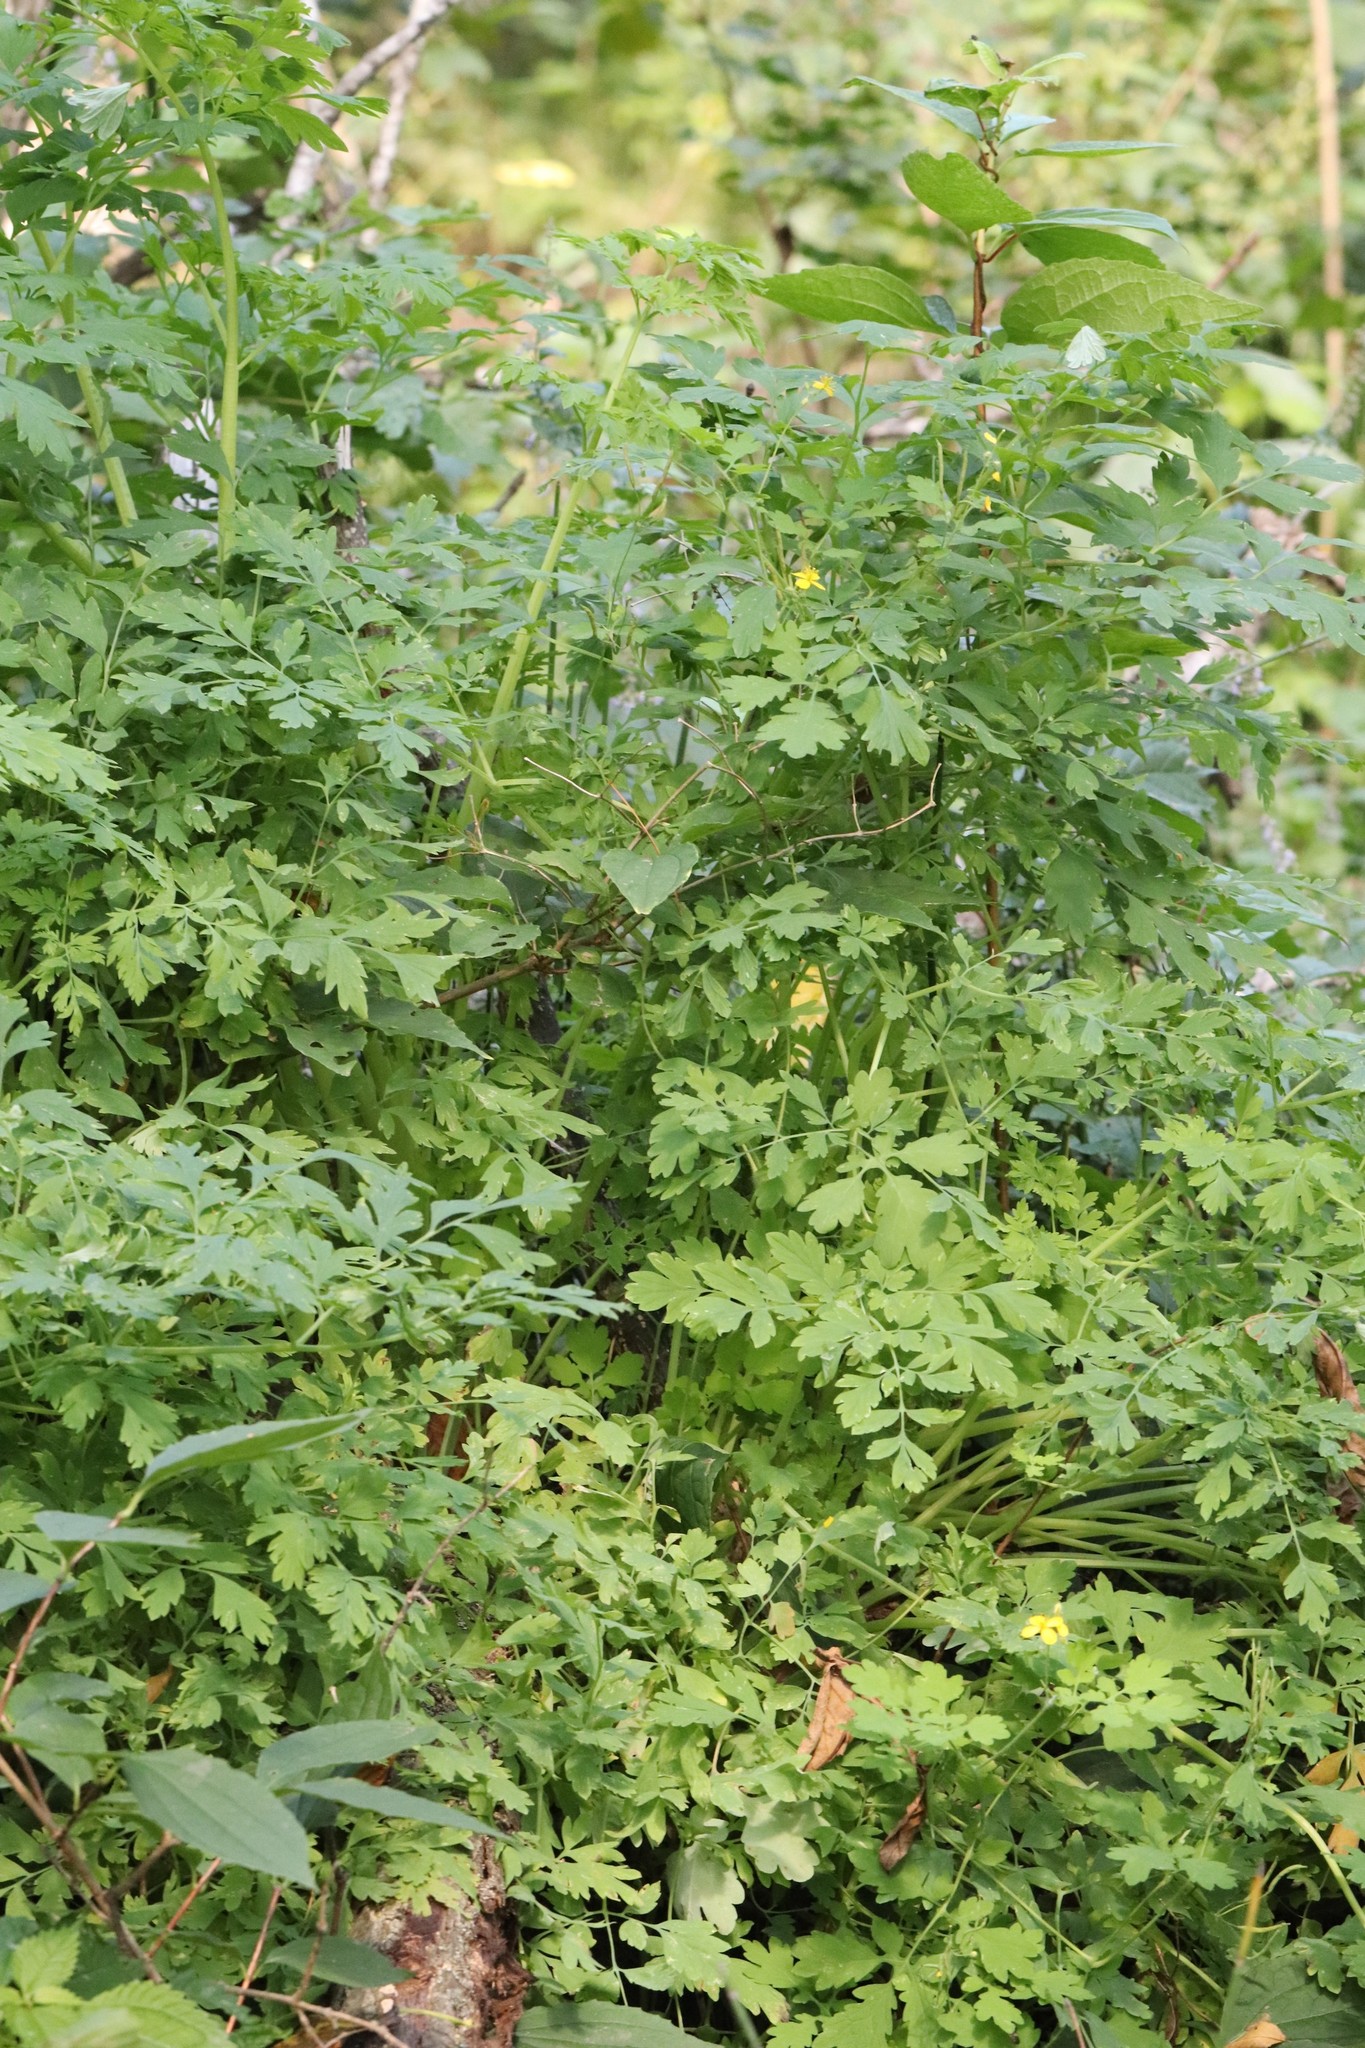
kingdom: Plantae
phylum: Tracheophyta
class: Magnoliopsida
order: Ranunculales
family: Papaveraceae
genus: Chelidonium
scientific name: Chelidonium majus
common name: Greater celandine
